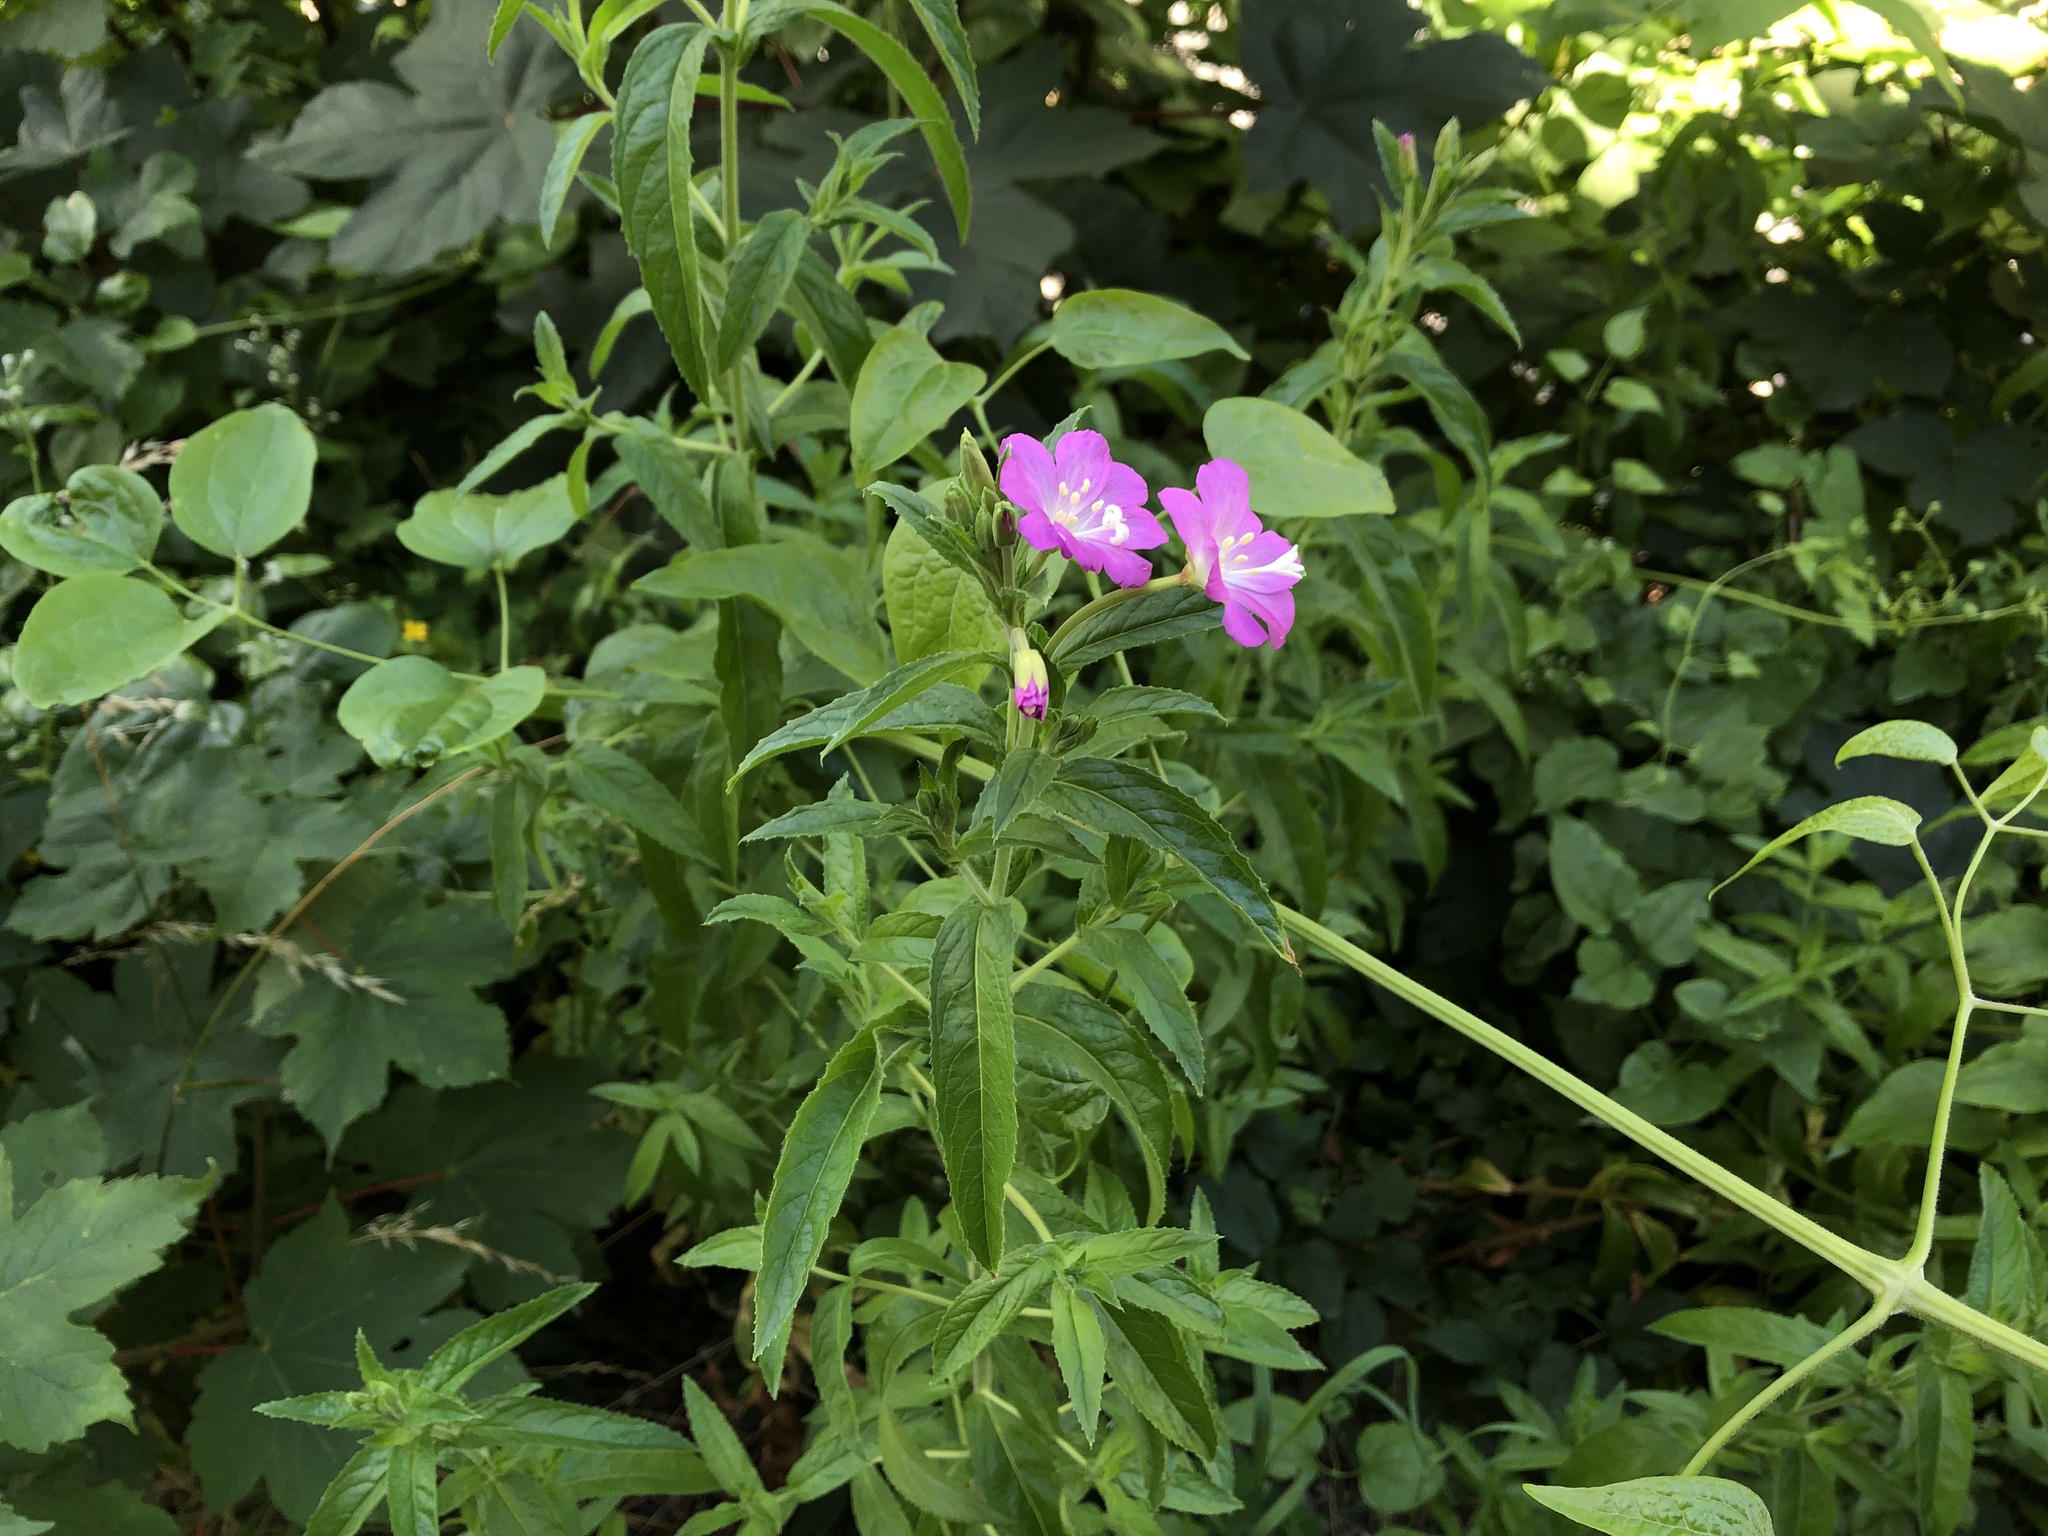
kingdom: Plantae
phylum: Tracheophyta
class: Magnoliopsida
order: Myrtales
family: Onagraceae
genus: Epilobium
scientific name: Epilobium hirsutum
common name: Great willowherb
